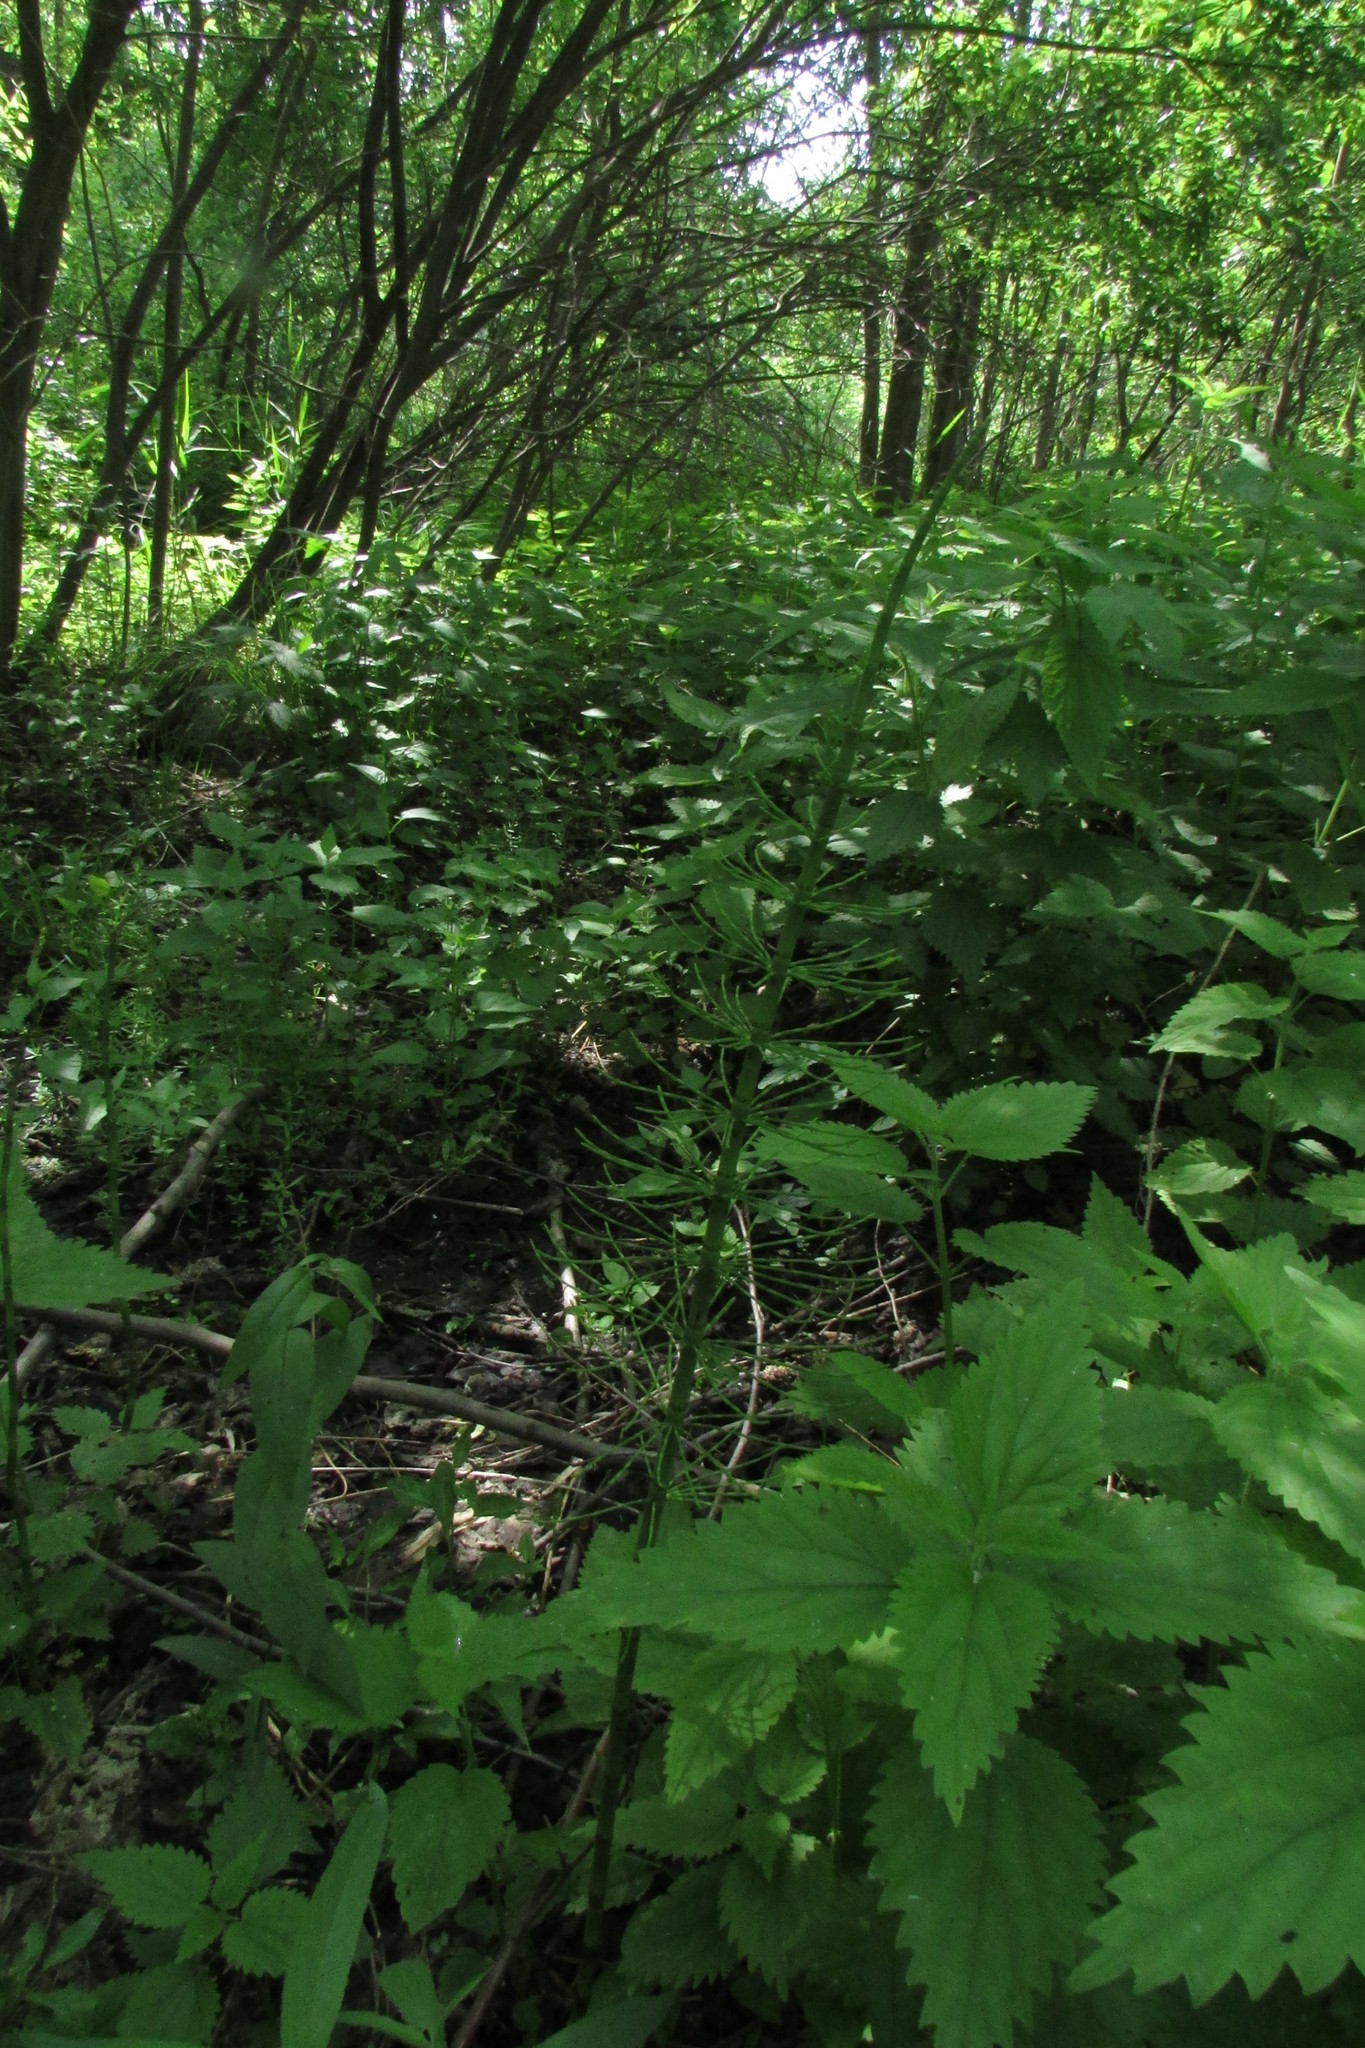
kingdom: Plantae
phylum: Tracheophyta
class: Polypodiopsida
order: Equisetales
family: Equisetaceae
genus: Equisetum
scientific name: Equisetum fluviatile
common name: Water horsetail
